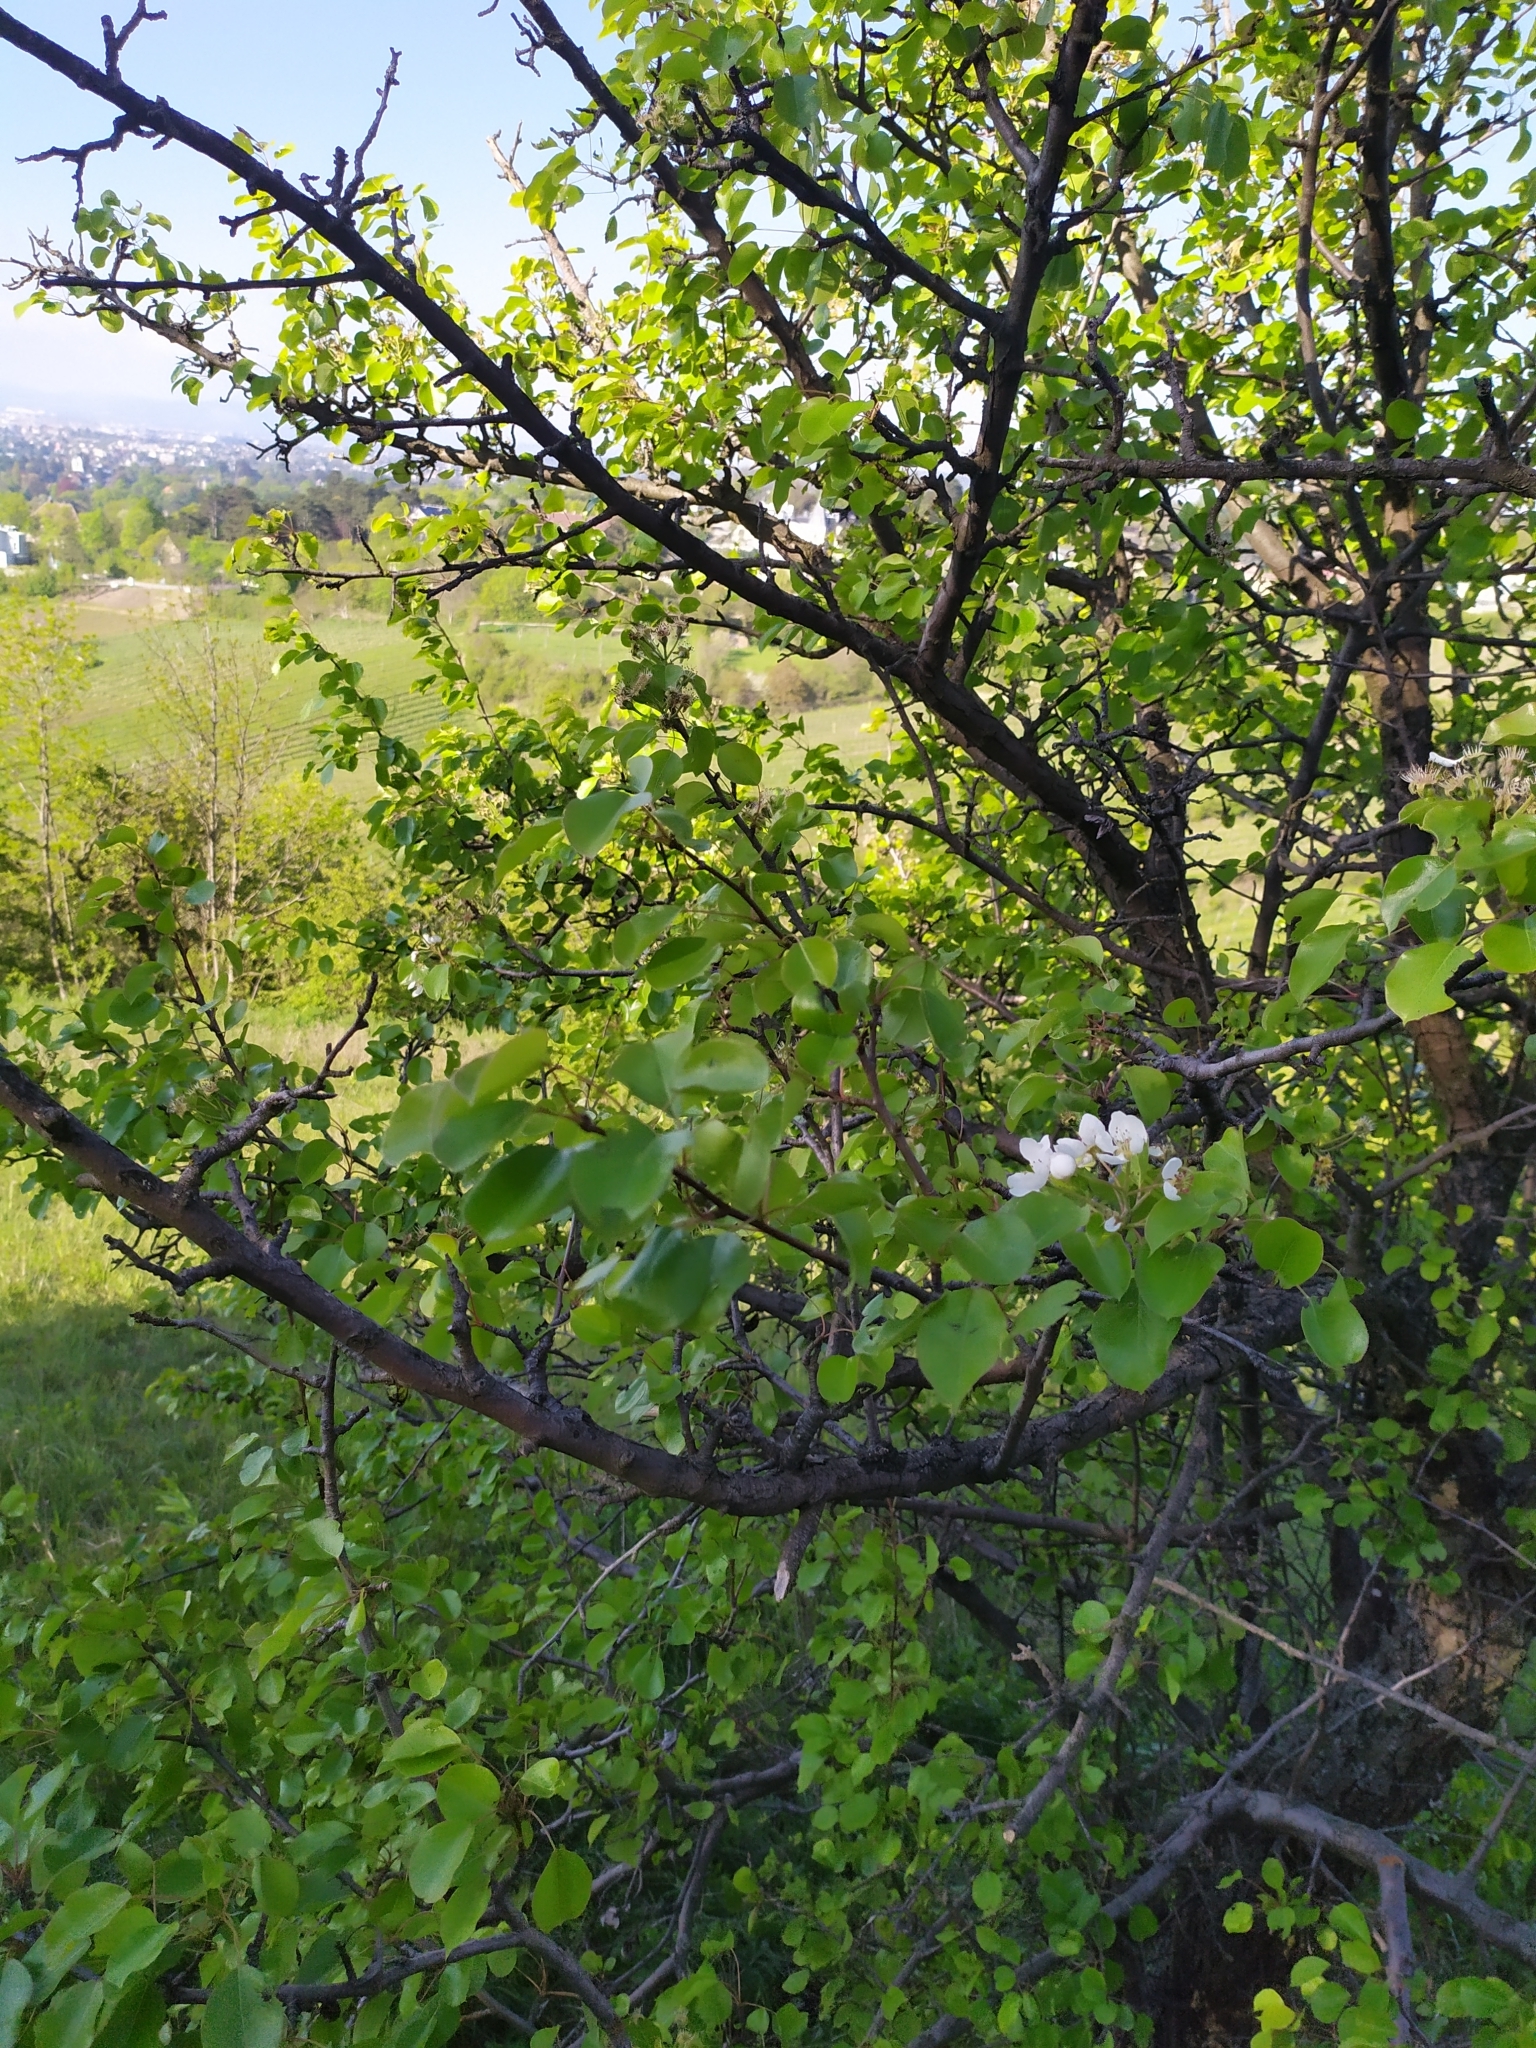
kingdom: Plantae
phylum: Tracheophyta
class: Magnoliopsida
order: Rosales
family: Rosaceae
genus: Pyrus
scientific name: Pyrus communis
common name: Pear
